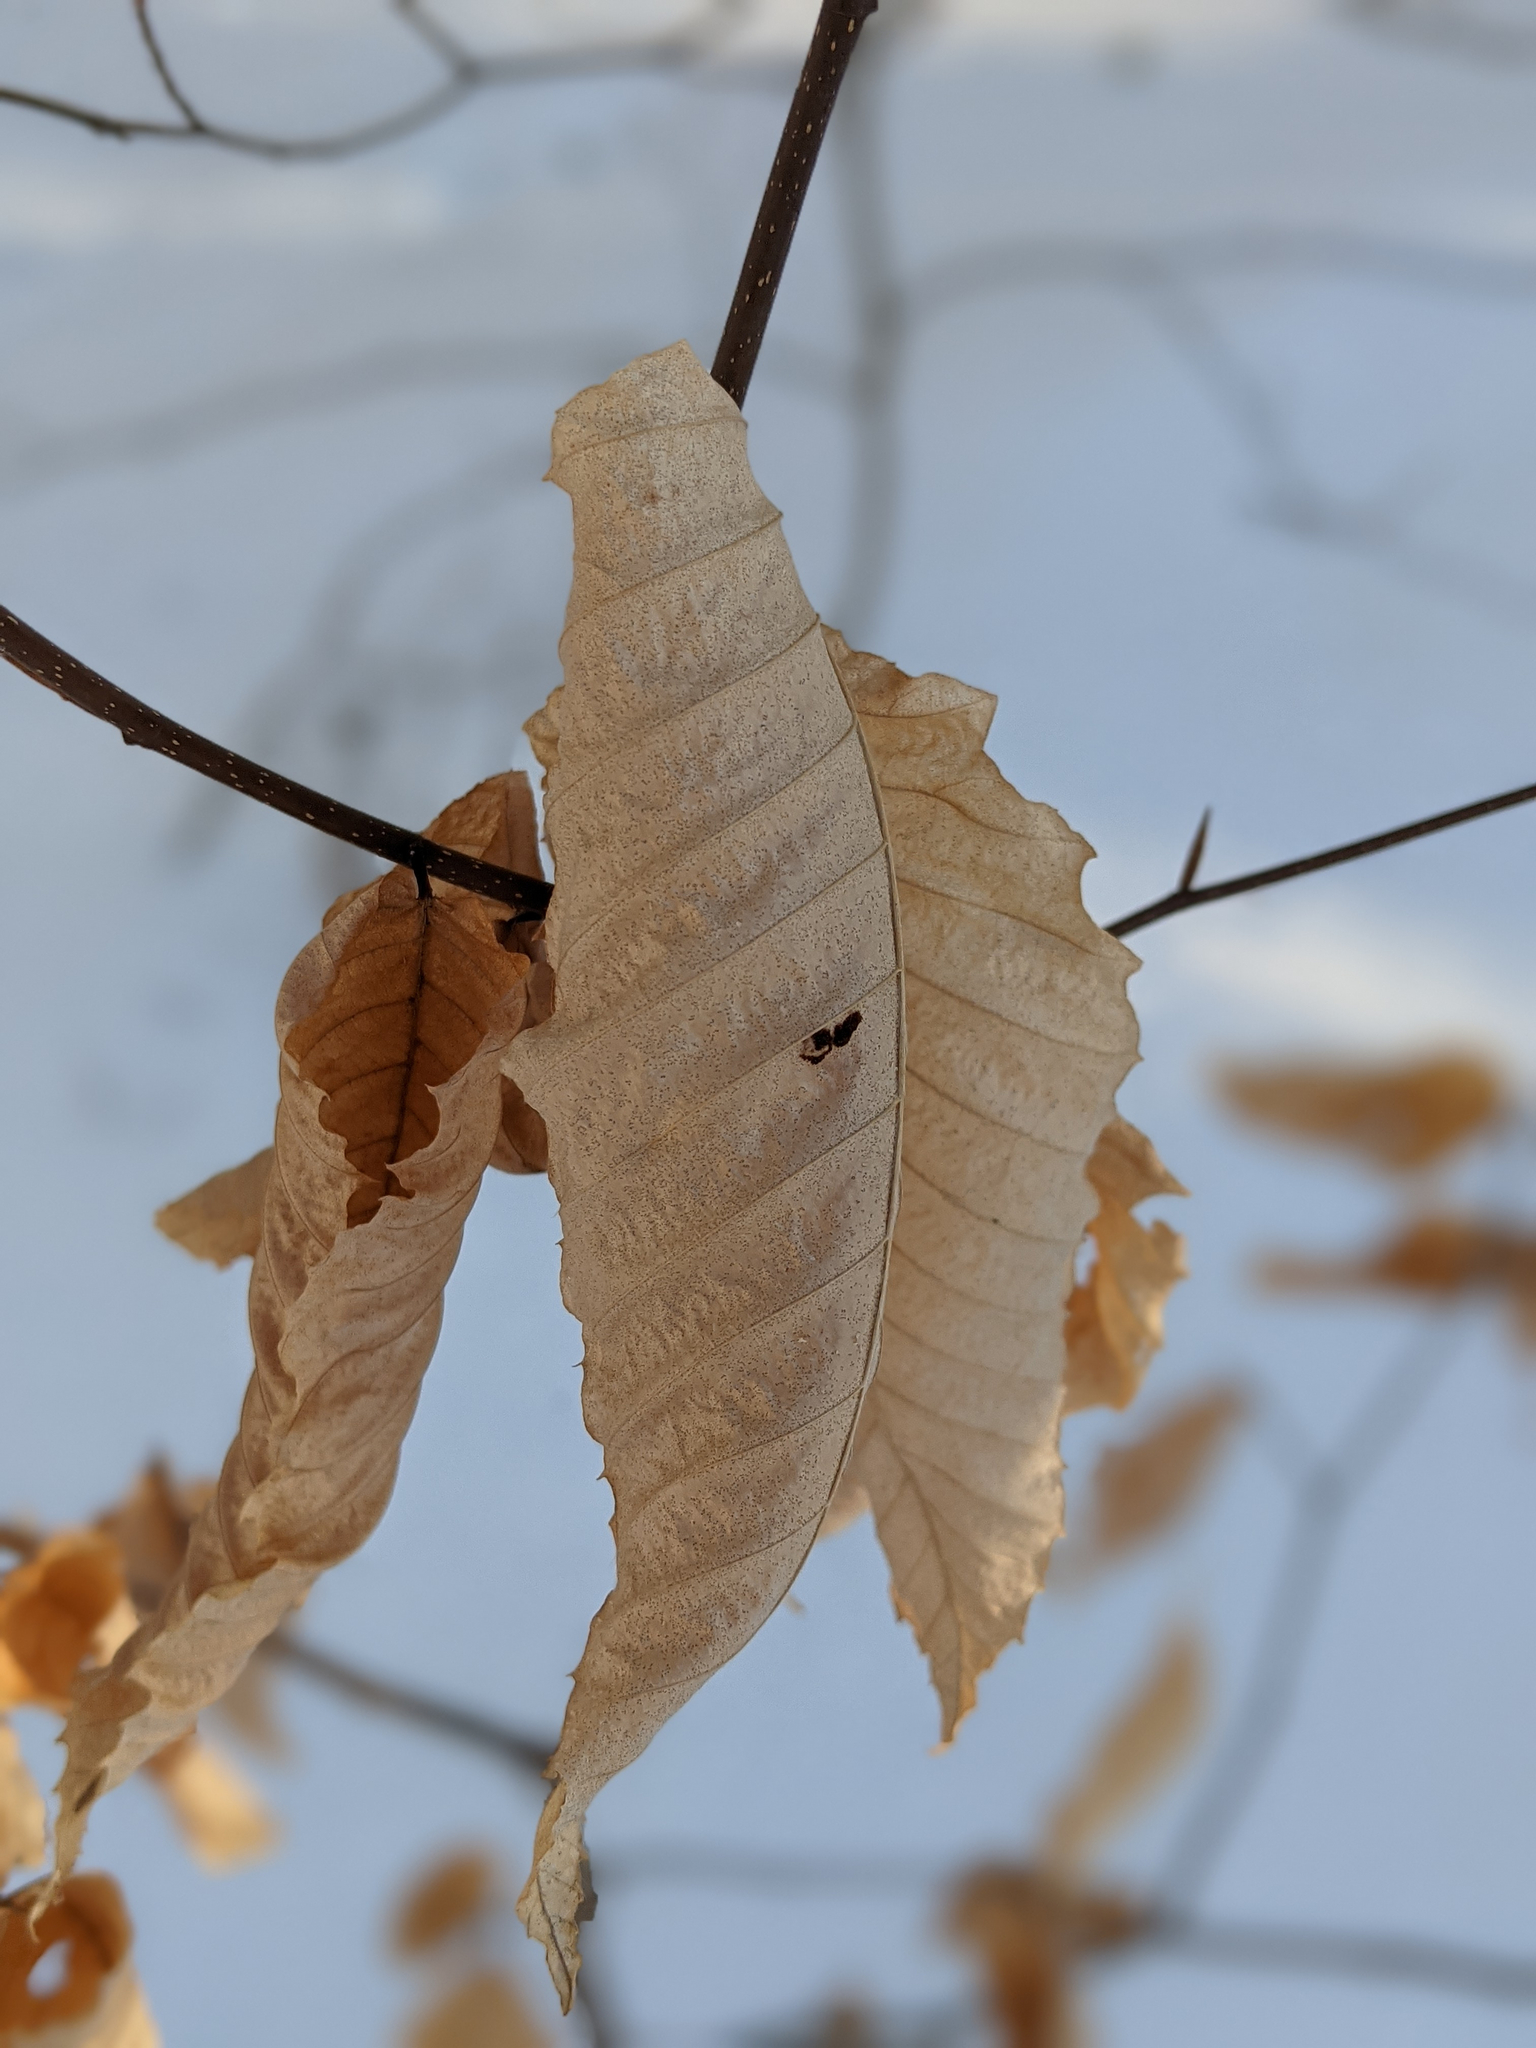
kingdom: Animalia
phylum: Arthropoda
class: Arachnida
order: Trombidiformes
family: Eriophyidae
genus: Acalitus
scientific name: Acalitus
